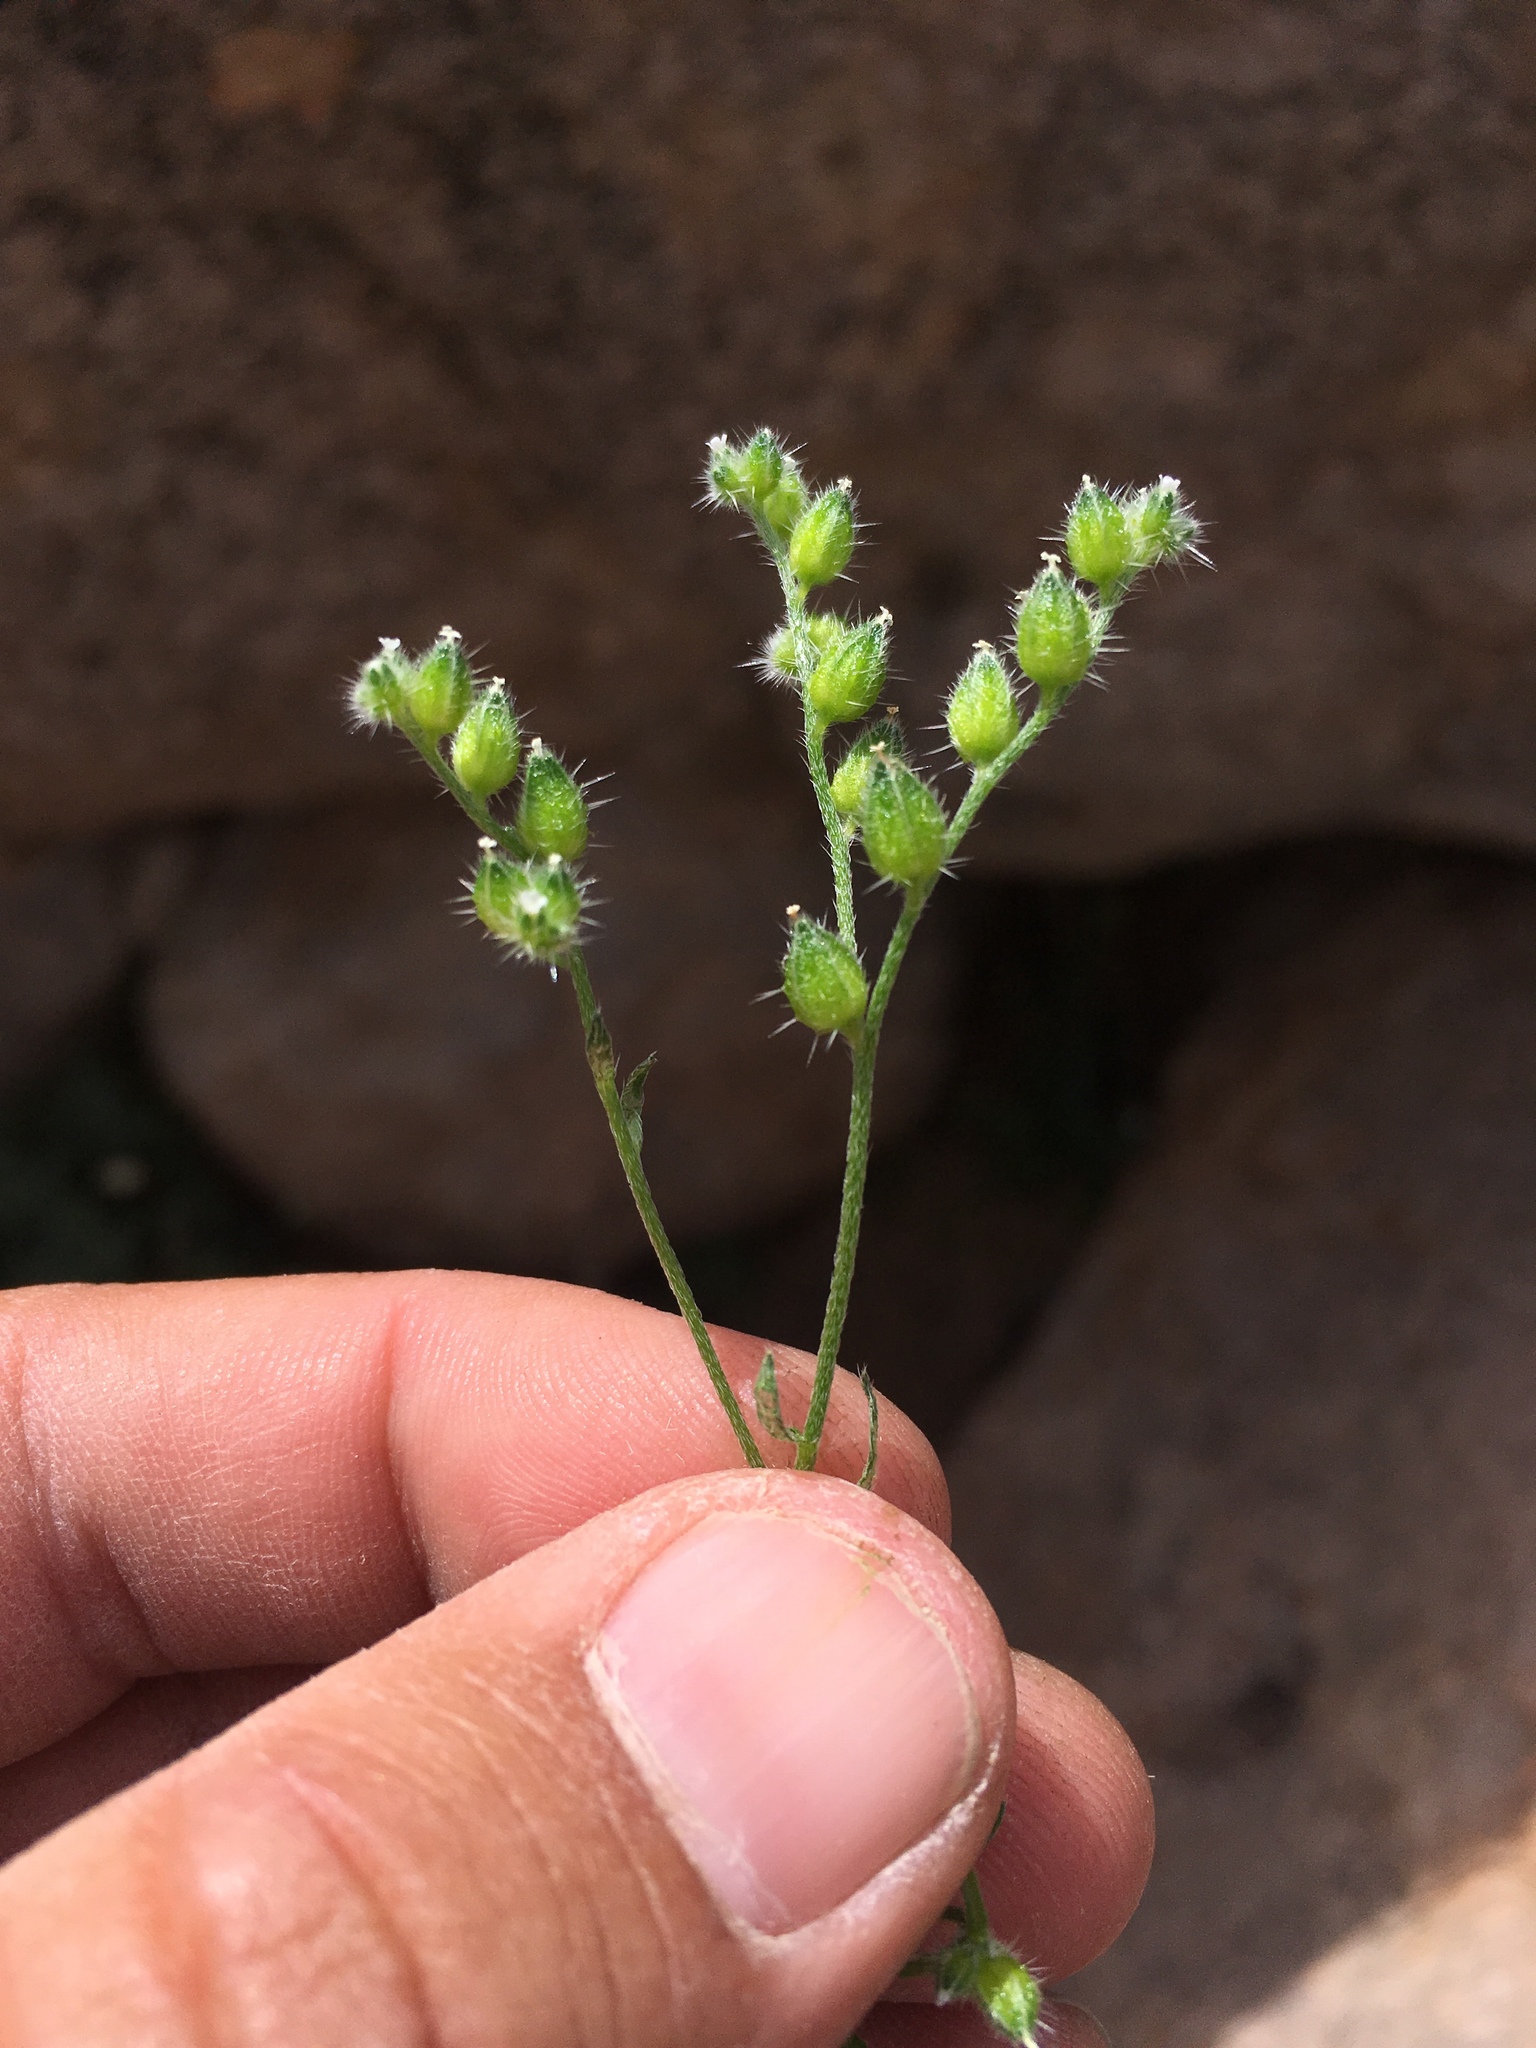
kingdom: Plantae
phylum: Tracheophyta
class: Magnoliopsida
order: Boraginales
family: Boraginaceae
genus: Cryptantha
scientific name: Cryptantha pterocarya
